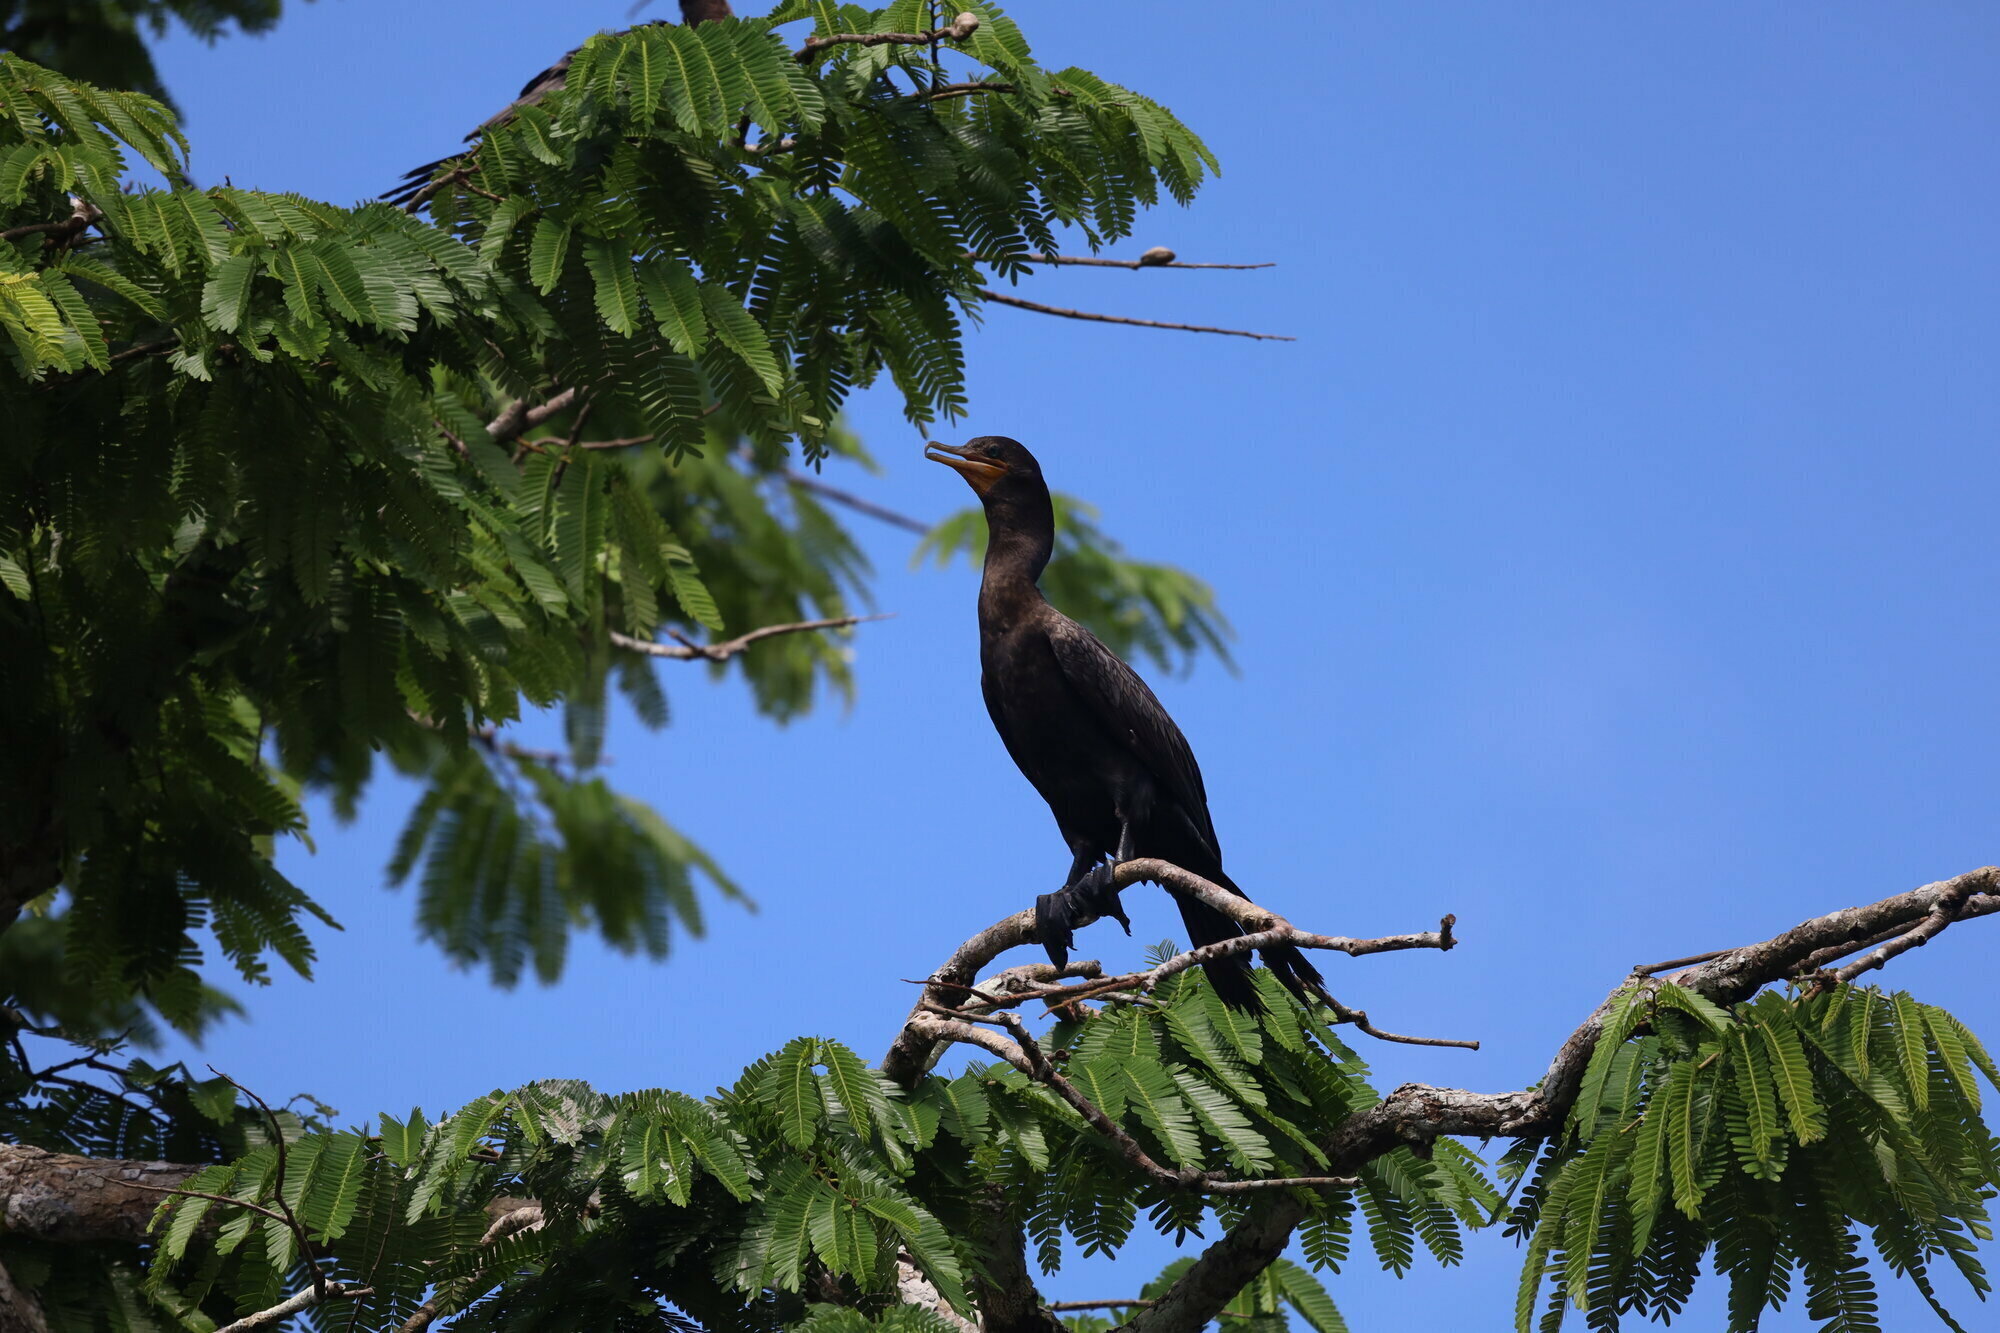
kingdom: Animalia
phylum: Chordata
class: Aves
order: Suliformes
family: Phalacrocoracidae
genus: Phalacrocorax
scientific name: Phalacrocorax brasilianus
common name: Neotropic cormorant
